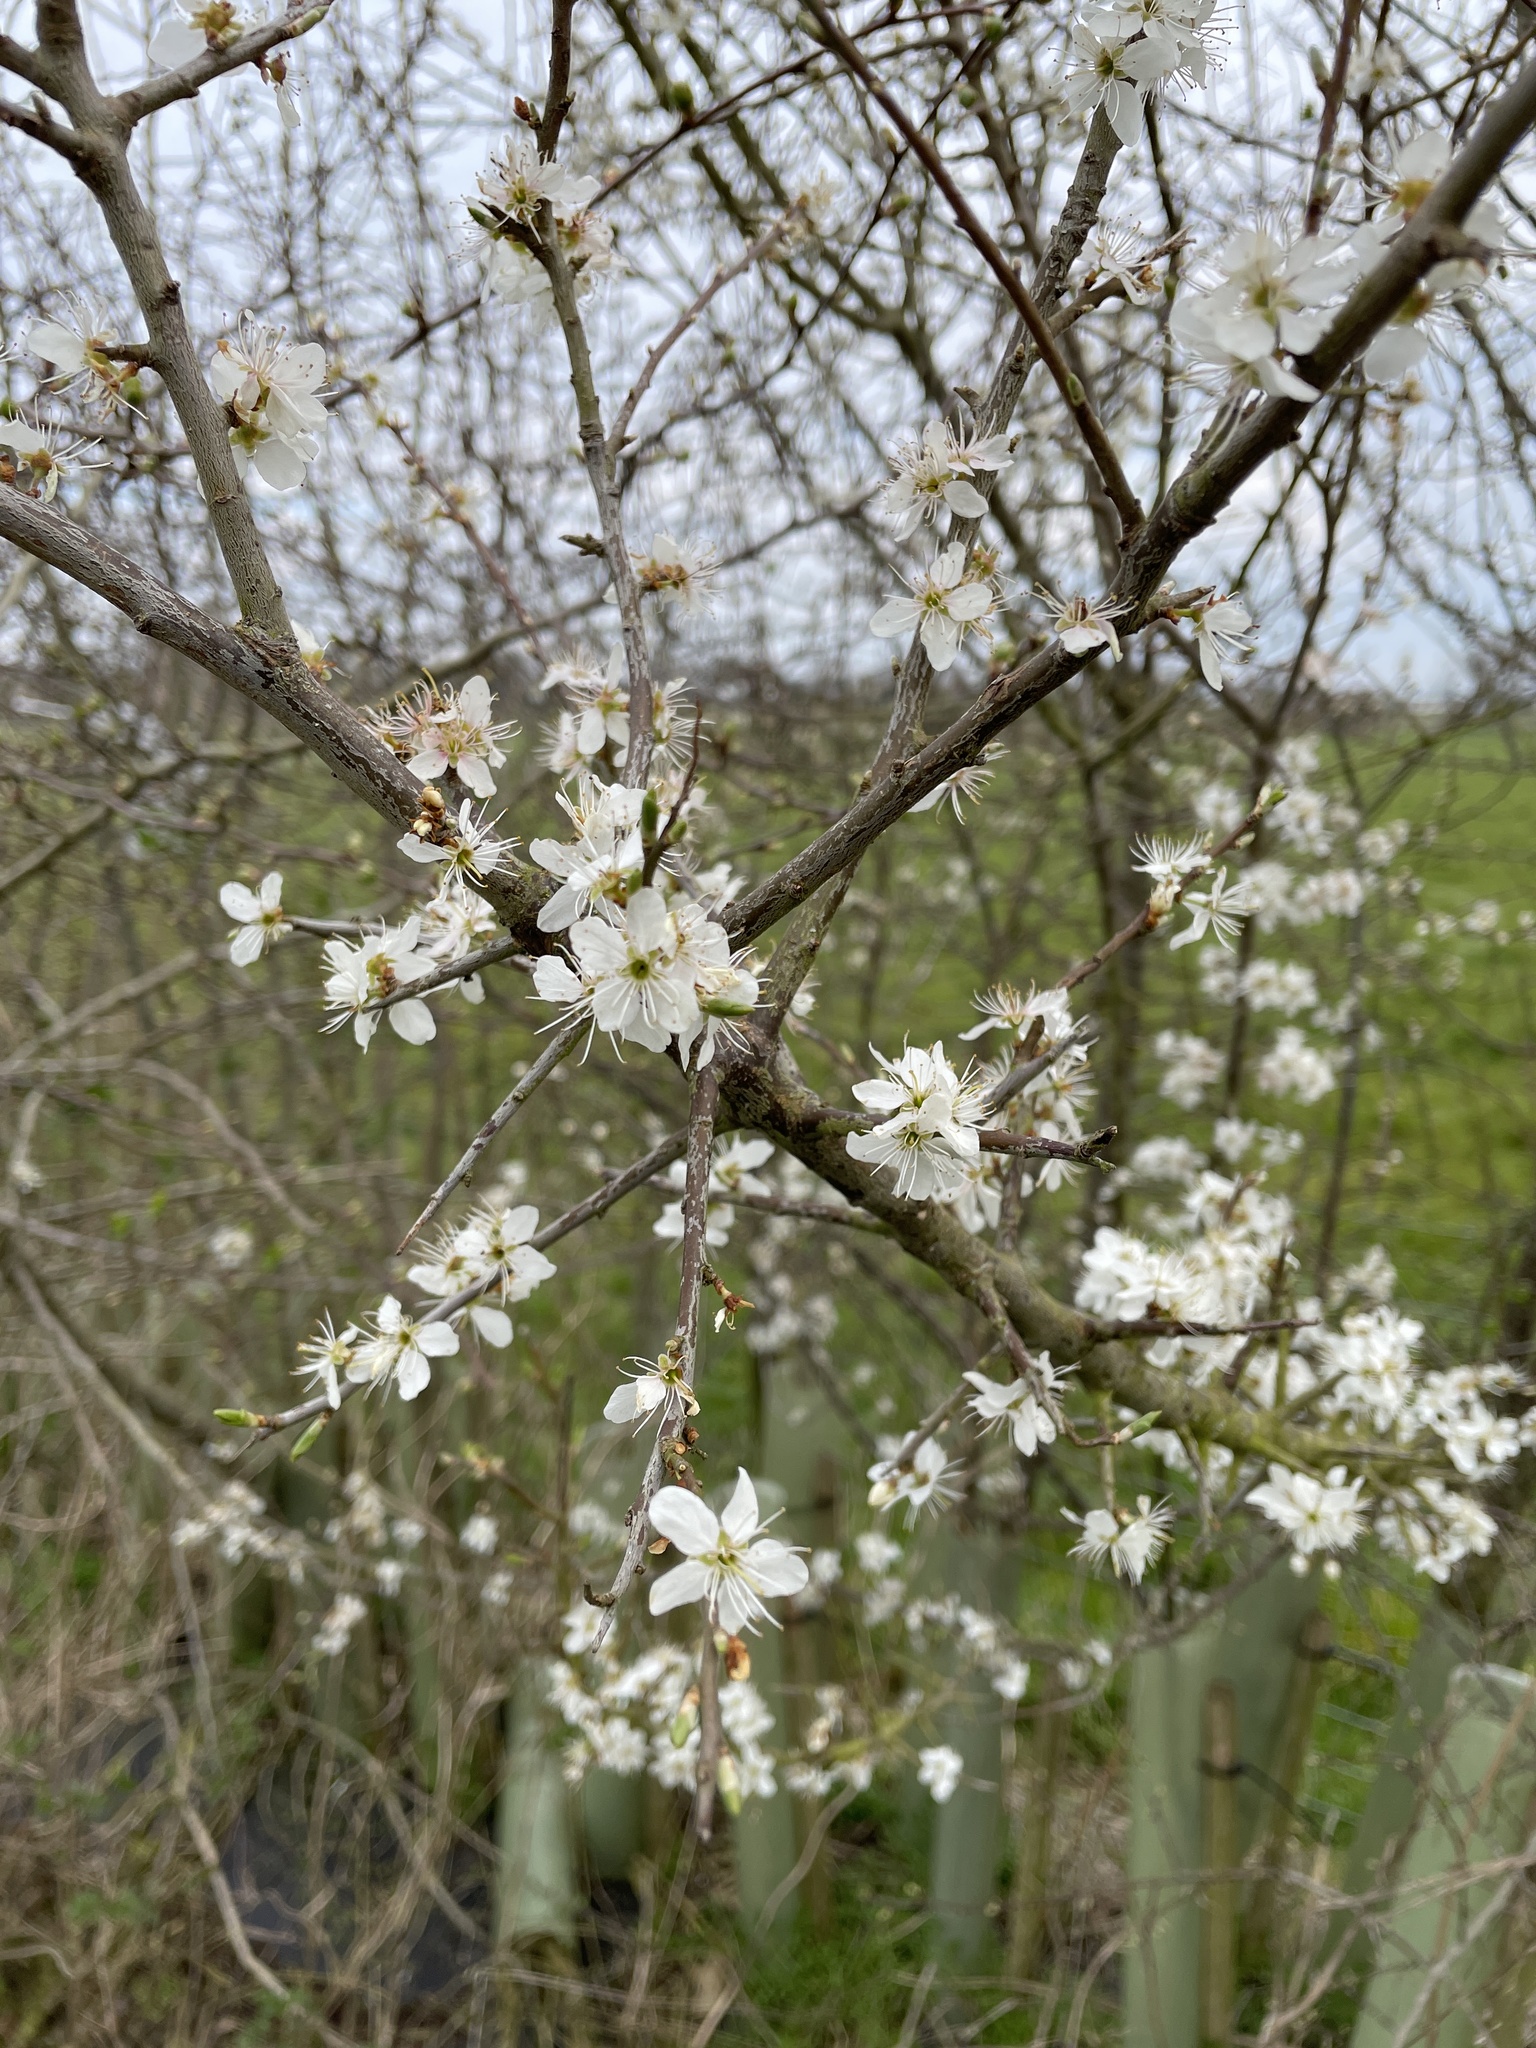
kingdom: Plantae
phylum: Tracheophyta
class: Magnoliopsida
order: Rosales
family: Rosaceae
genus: Prunus
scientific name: Prunus spinosa
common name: Blackthorn
